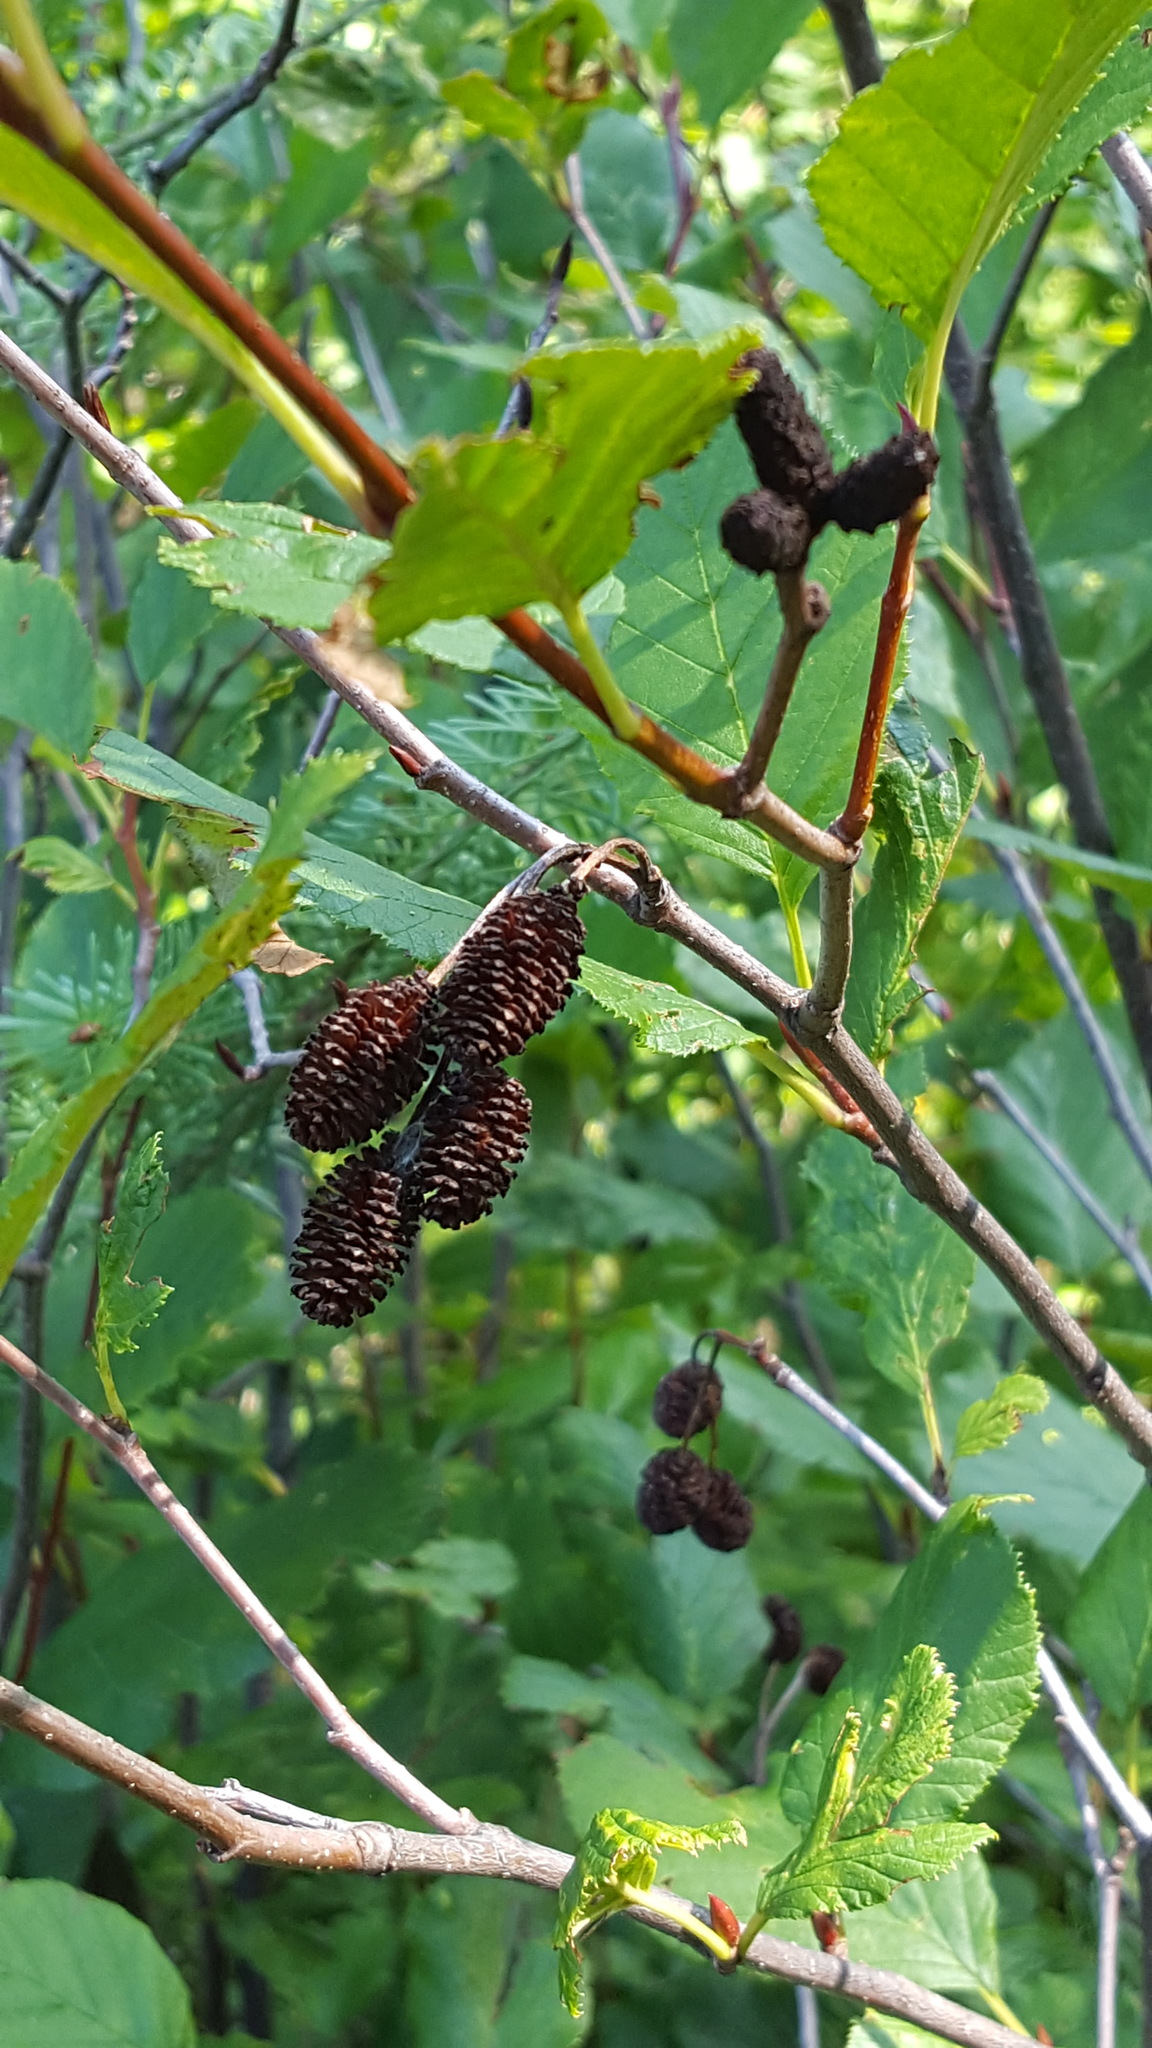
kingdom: Plantae
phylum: Tracheophyta
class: Magnoliopsida
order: Fagales
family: Betulaceae
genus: Alnus
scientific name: Alnus alnobetula
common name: Green alder
